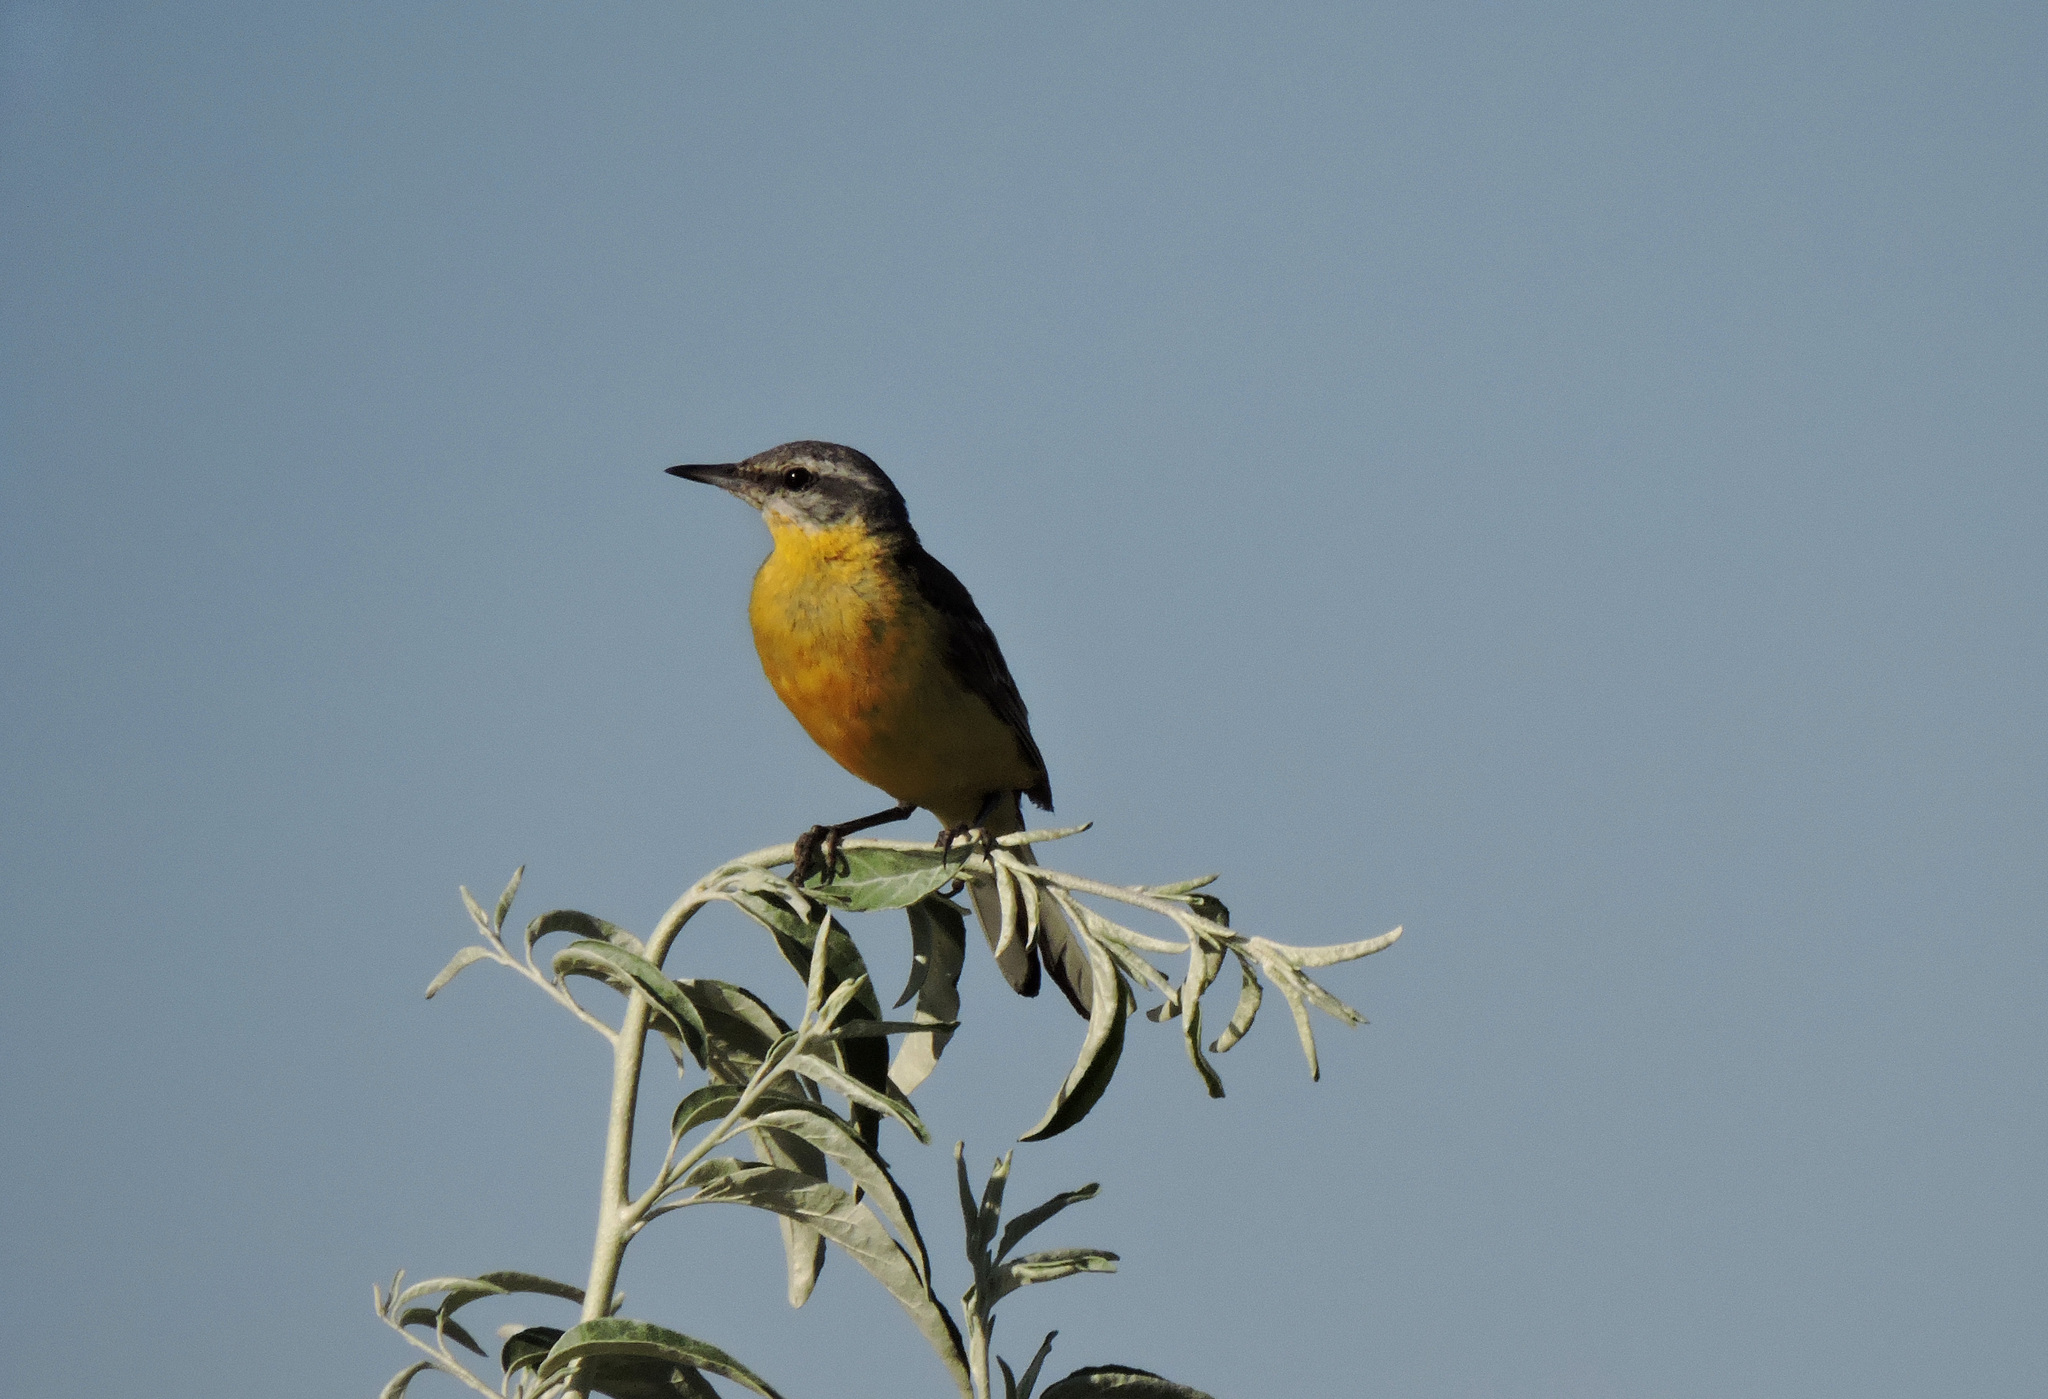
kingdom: Animalia
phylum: Chordata
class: Aves
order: Passeriformes
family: Motacillidae
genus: Motacilla
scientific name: Motacilla flava
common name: Western yellow wagtail
